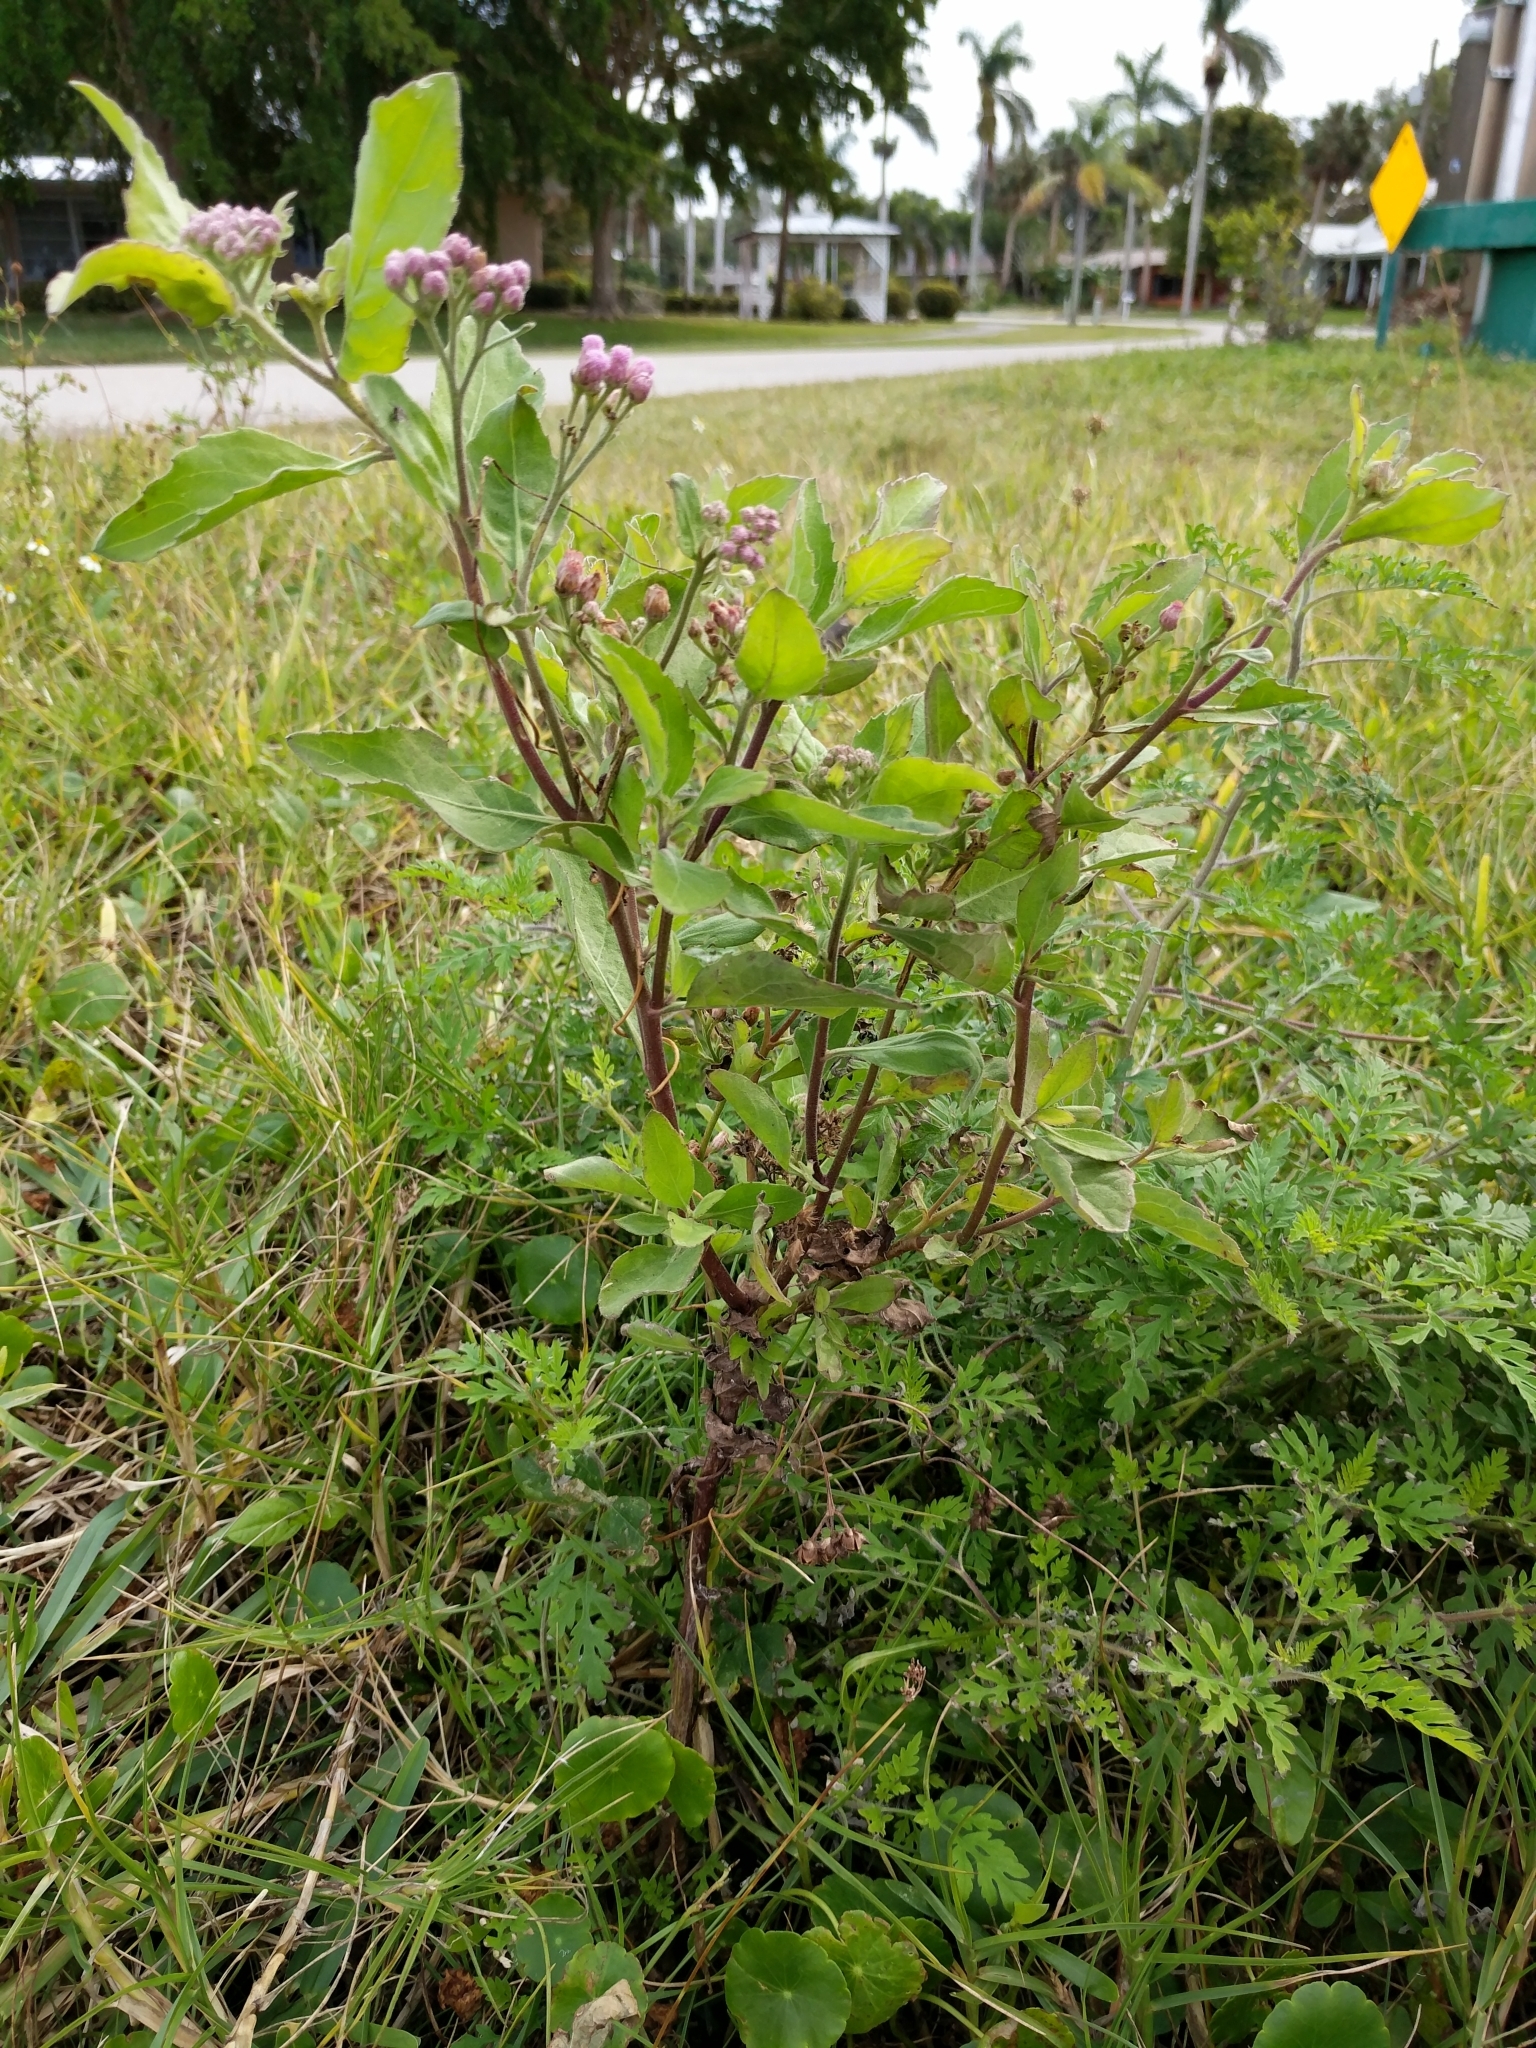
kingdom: Plantae
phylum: Tracheophyta
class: Magnoliopsida
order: Asterales
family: Asteraceae
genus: Pluchea
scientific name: Pluchea odorata
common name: Saltmarsh fleabane
